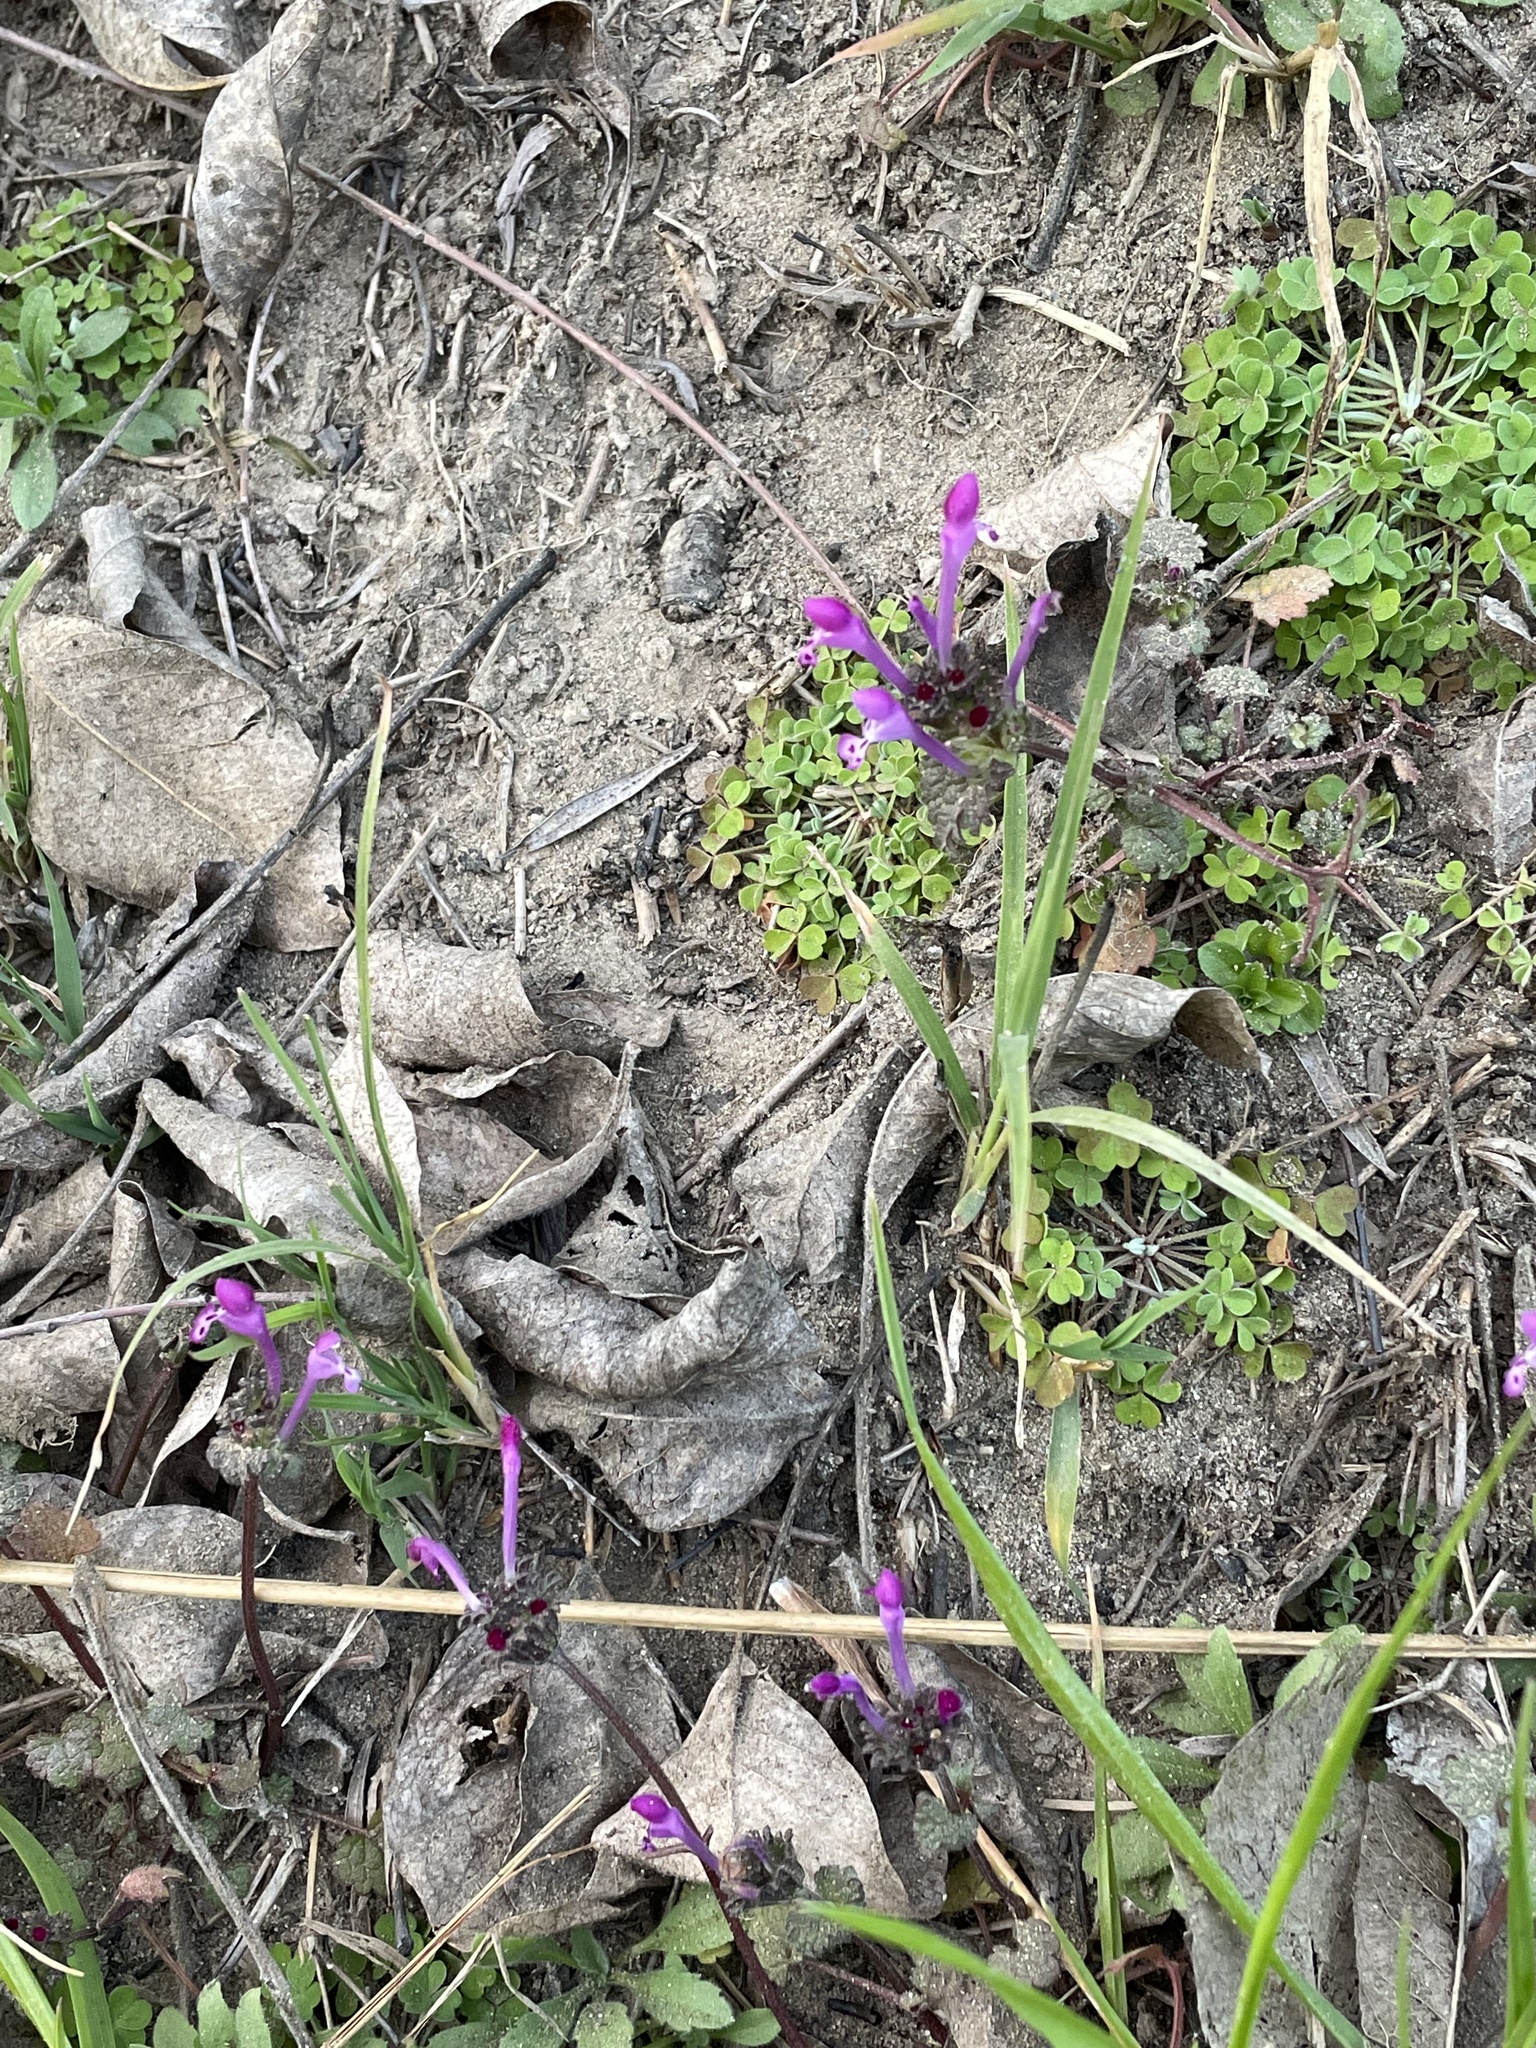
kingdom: Plantae
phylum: Tracheophyta
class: Magnoliopsida
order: Lamiales
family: Lamiaceae
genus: Lamium
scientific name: Lamium amplexicaule
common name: Henbit dead-nettle
